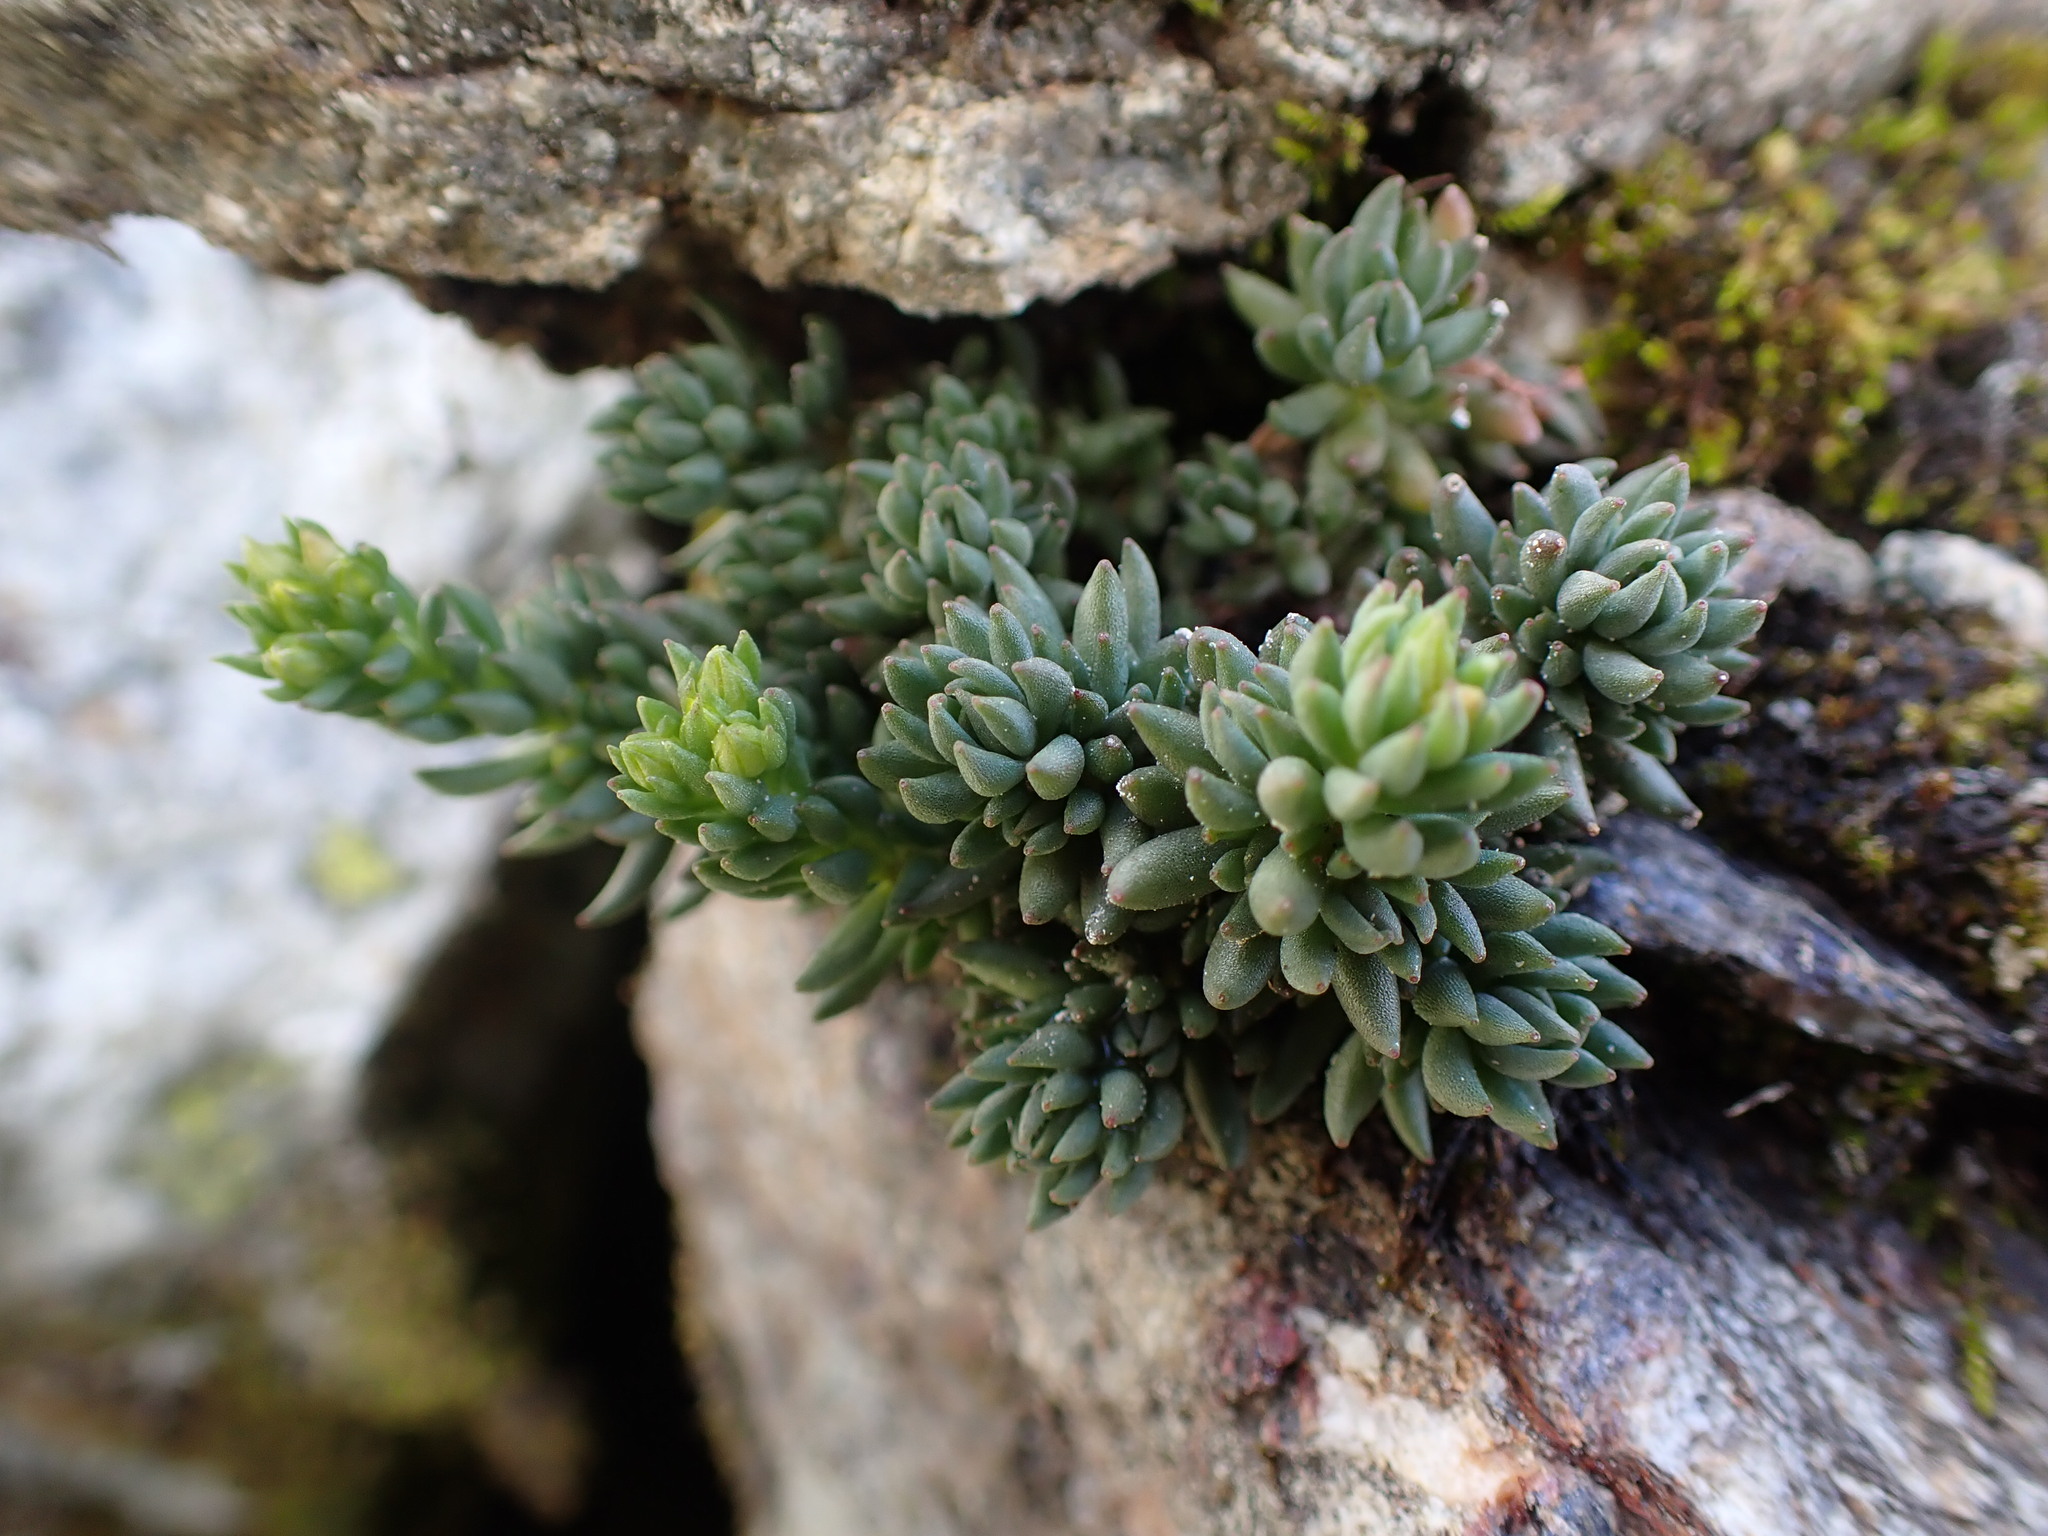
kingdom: Plantae
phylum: Tracheophyta
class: Magnoliopsida
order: Saxifragales
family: Crassulaceae
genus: Sedum
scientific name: Sedum lanceolatum
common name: Common stonecrop
